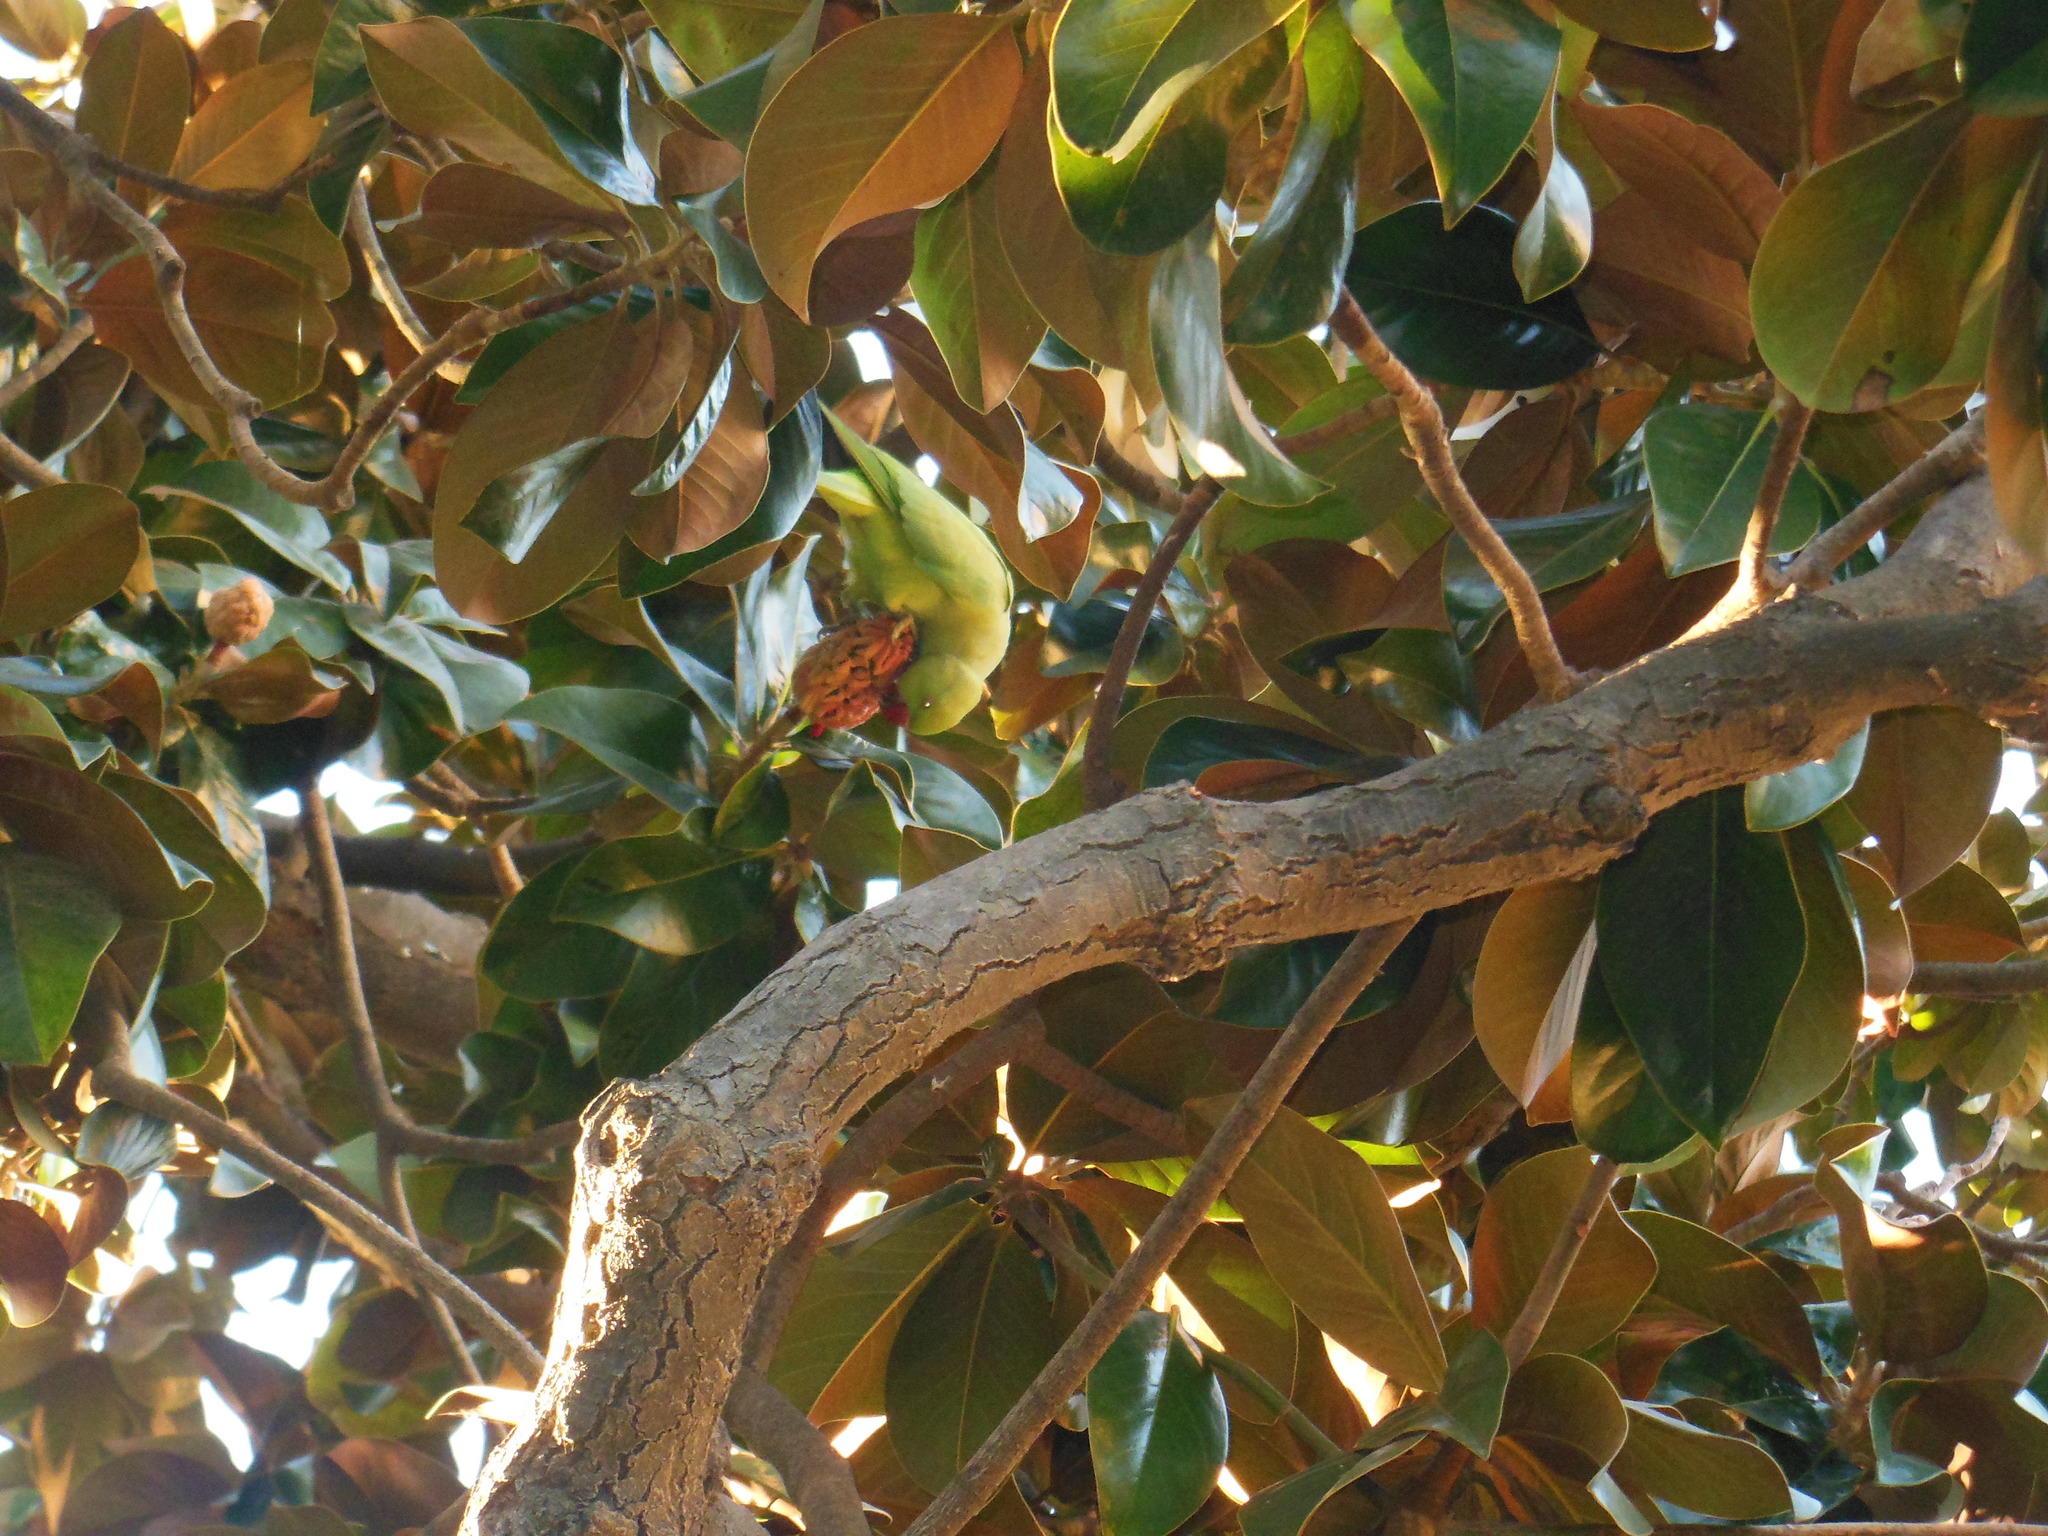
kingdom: Animalia
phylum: Chordata
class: Aves
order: Psittaciformes
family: Psittacidae
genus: Psittacula
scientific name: Psittacula krameri
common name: Rose-ringed parakeet
